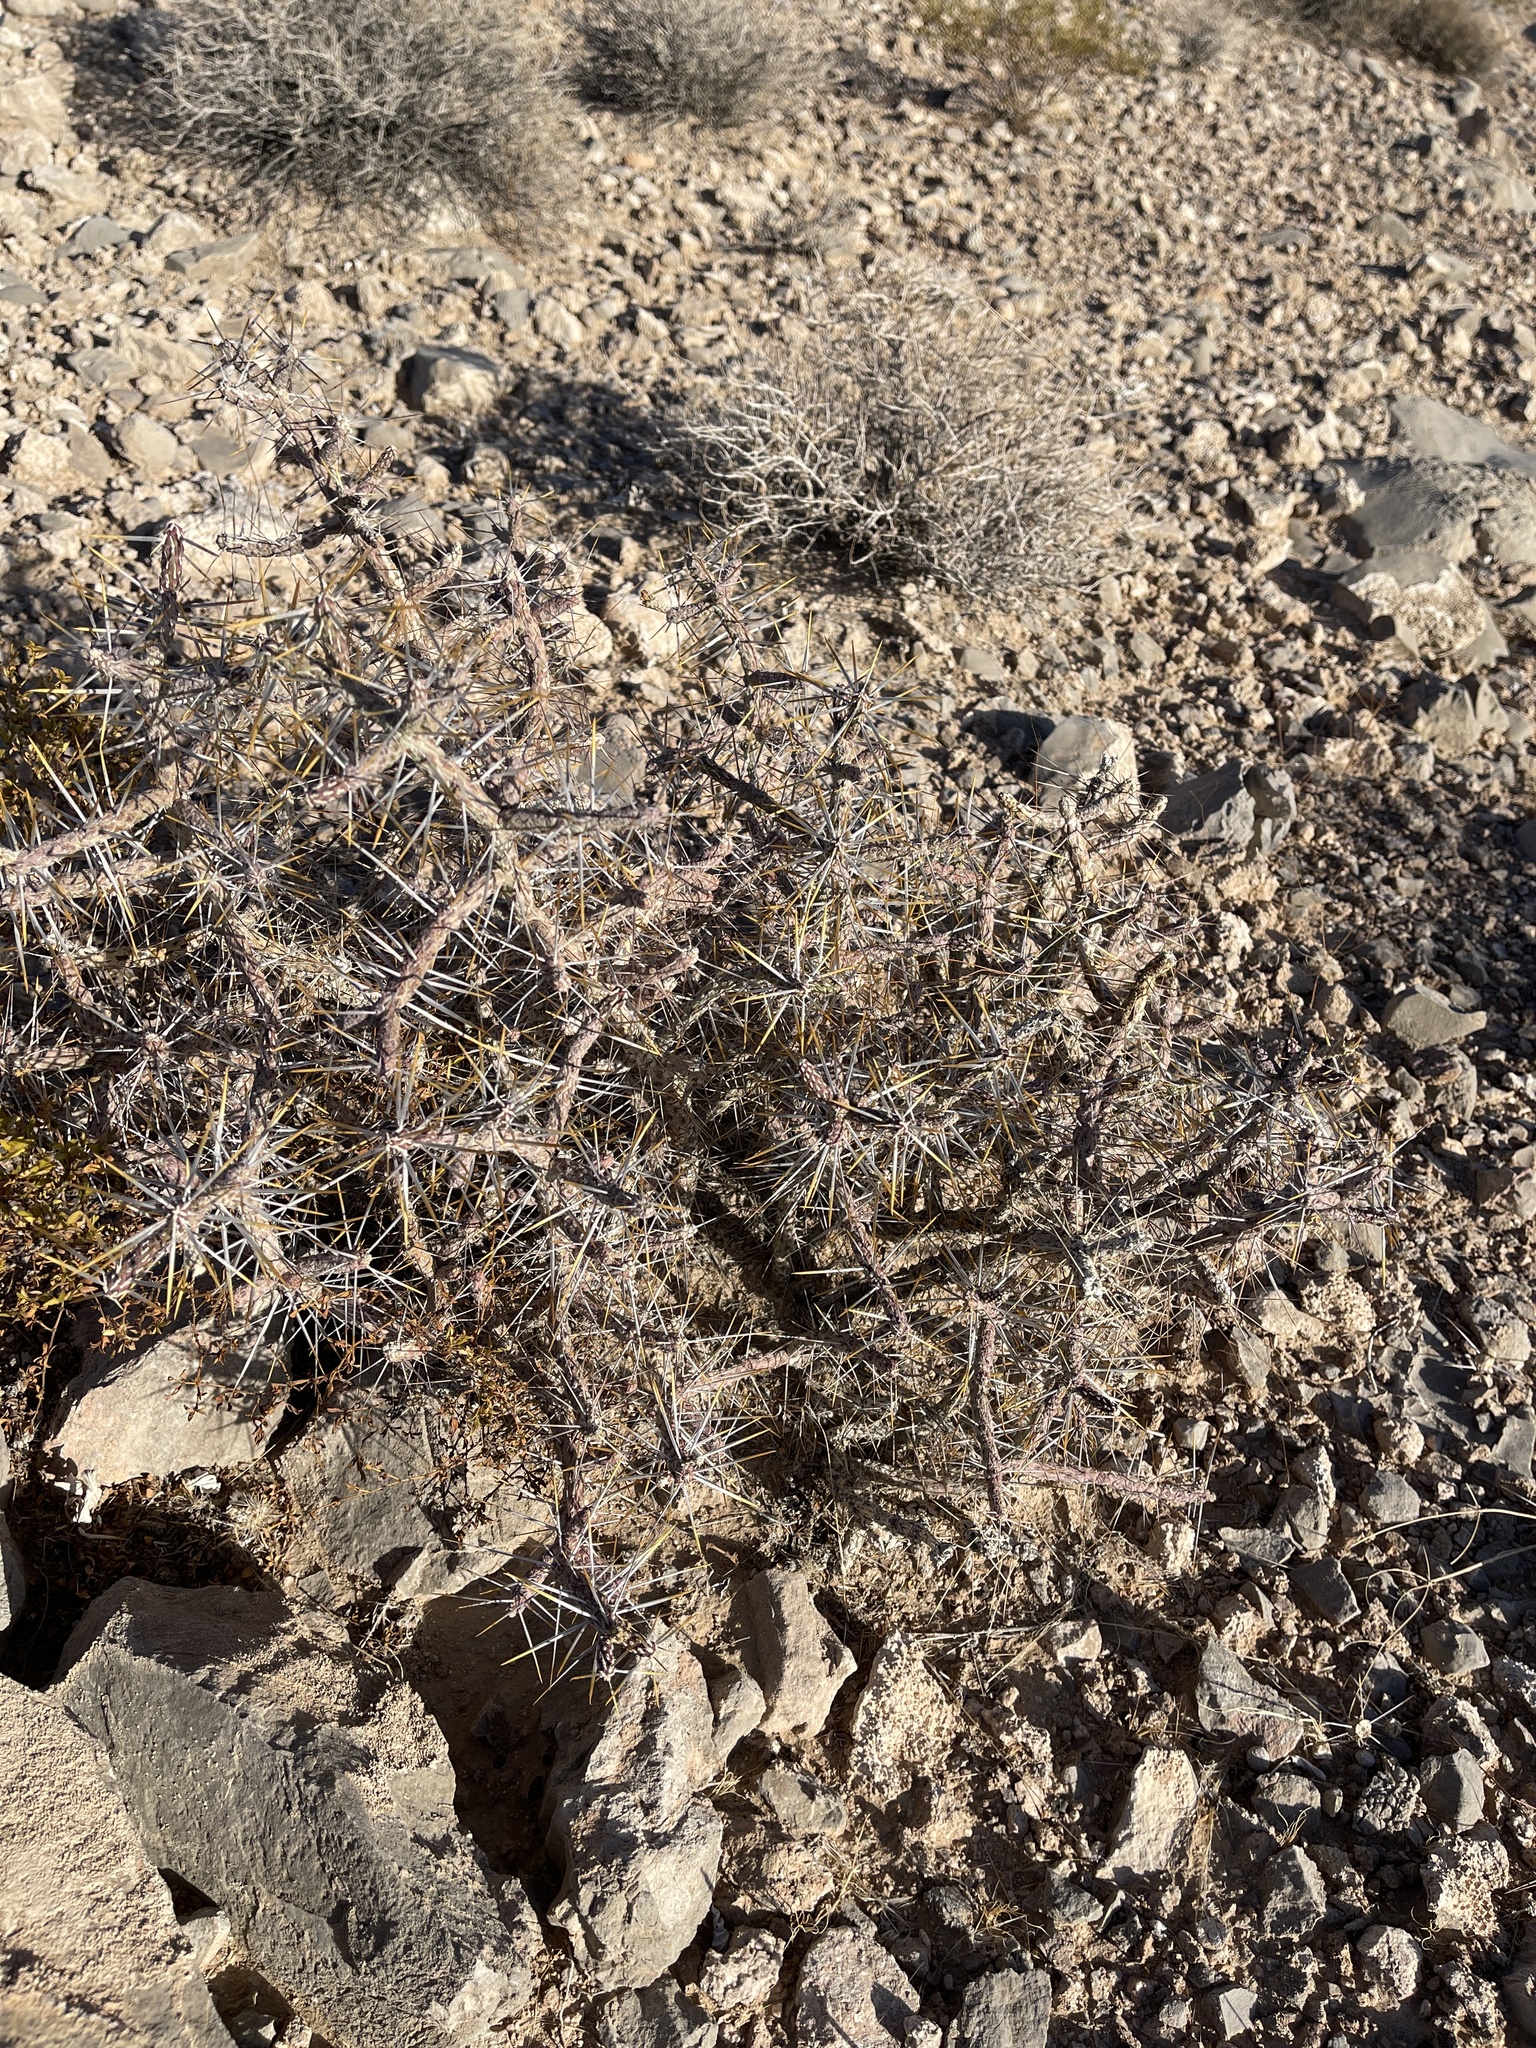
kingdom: Plantae
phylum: Tracheophyta
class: Magnoliopsida
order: Caryophyllales
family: Cactaceae
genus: Cylindropuntia
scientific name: Cylindropuntia ramosissima
